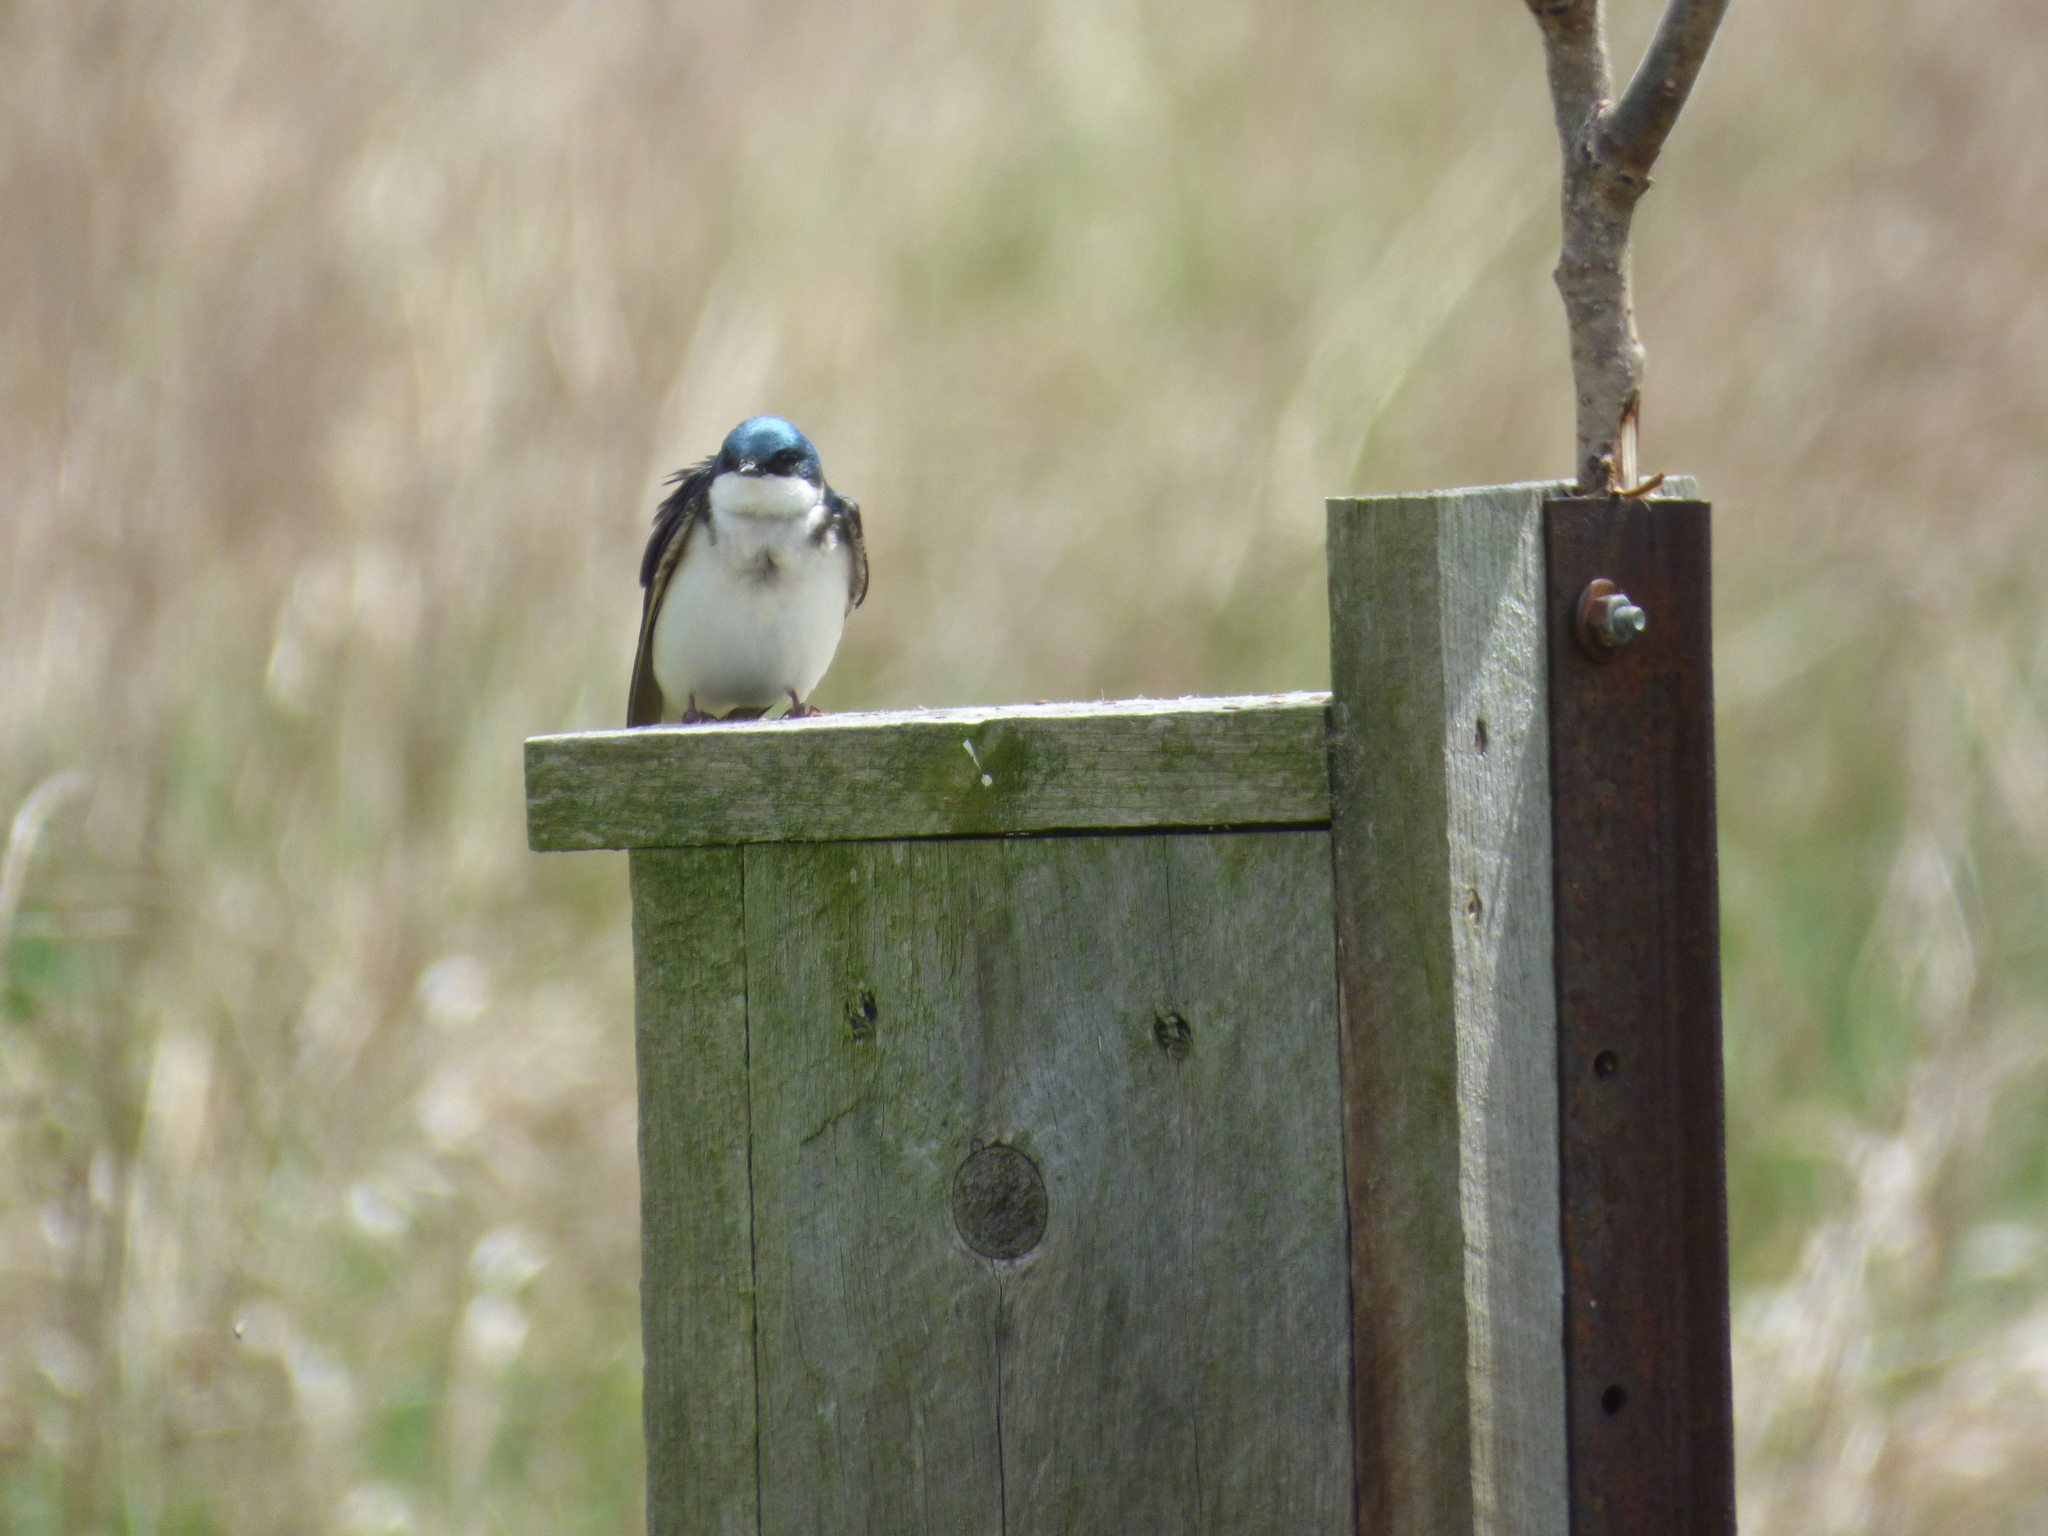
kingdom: Animalia
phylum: Chordata
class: Aves
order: Passeriformes
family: Hirundinidae
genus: Tachycineta
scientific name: Tachycineta bicolor
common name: Tree swallow
